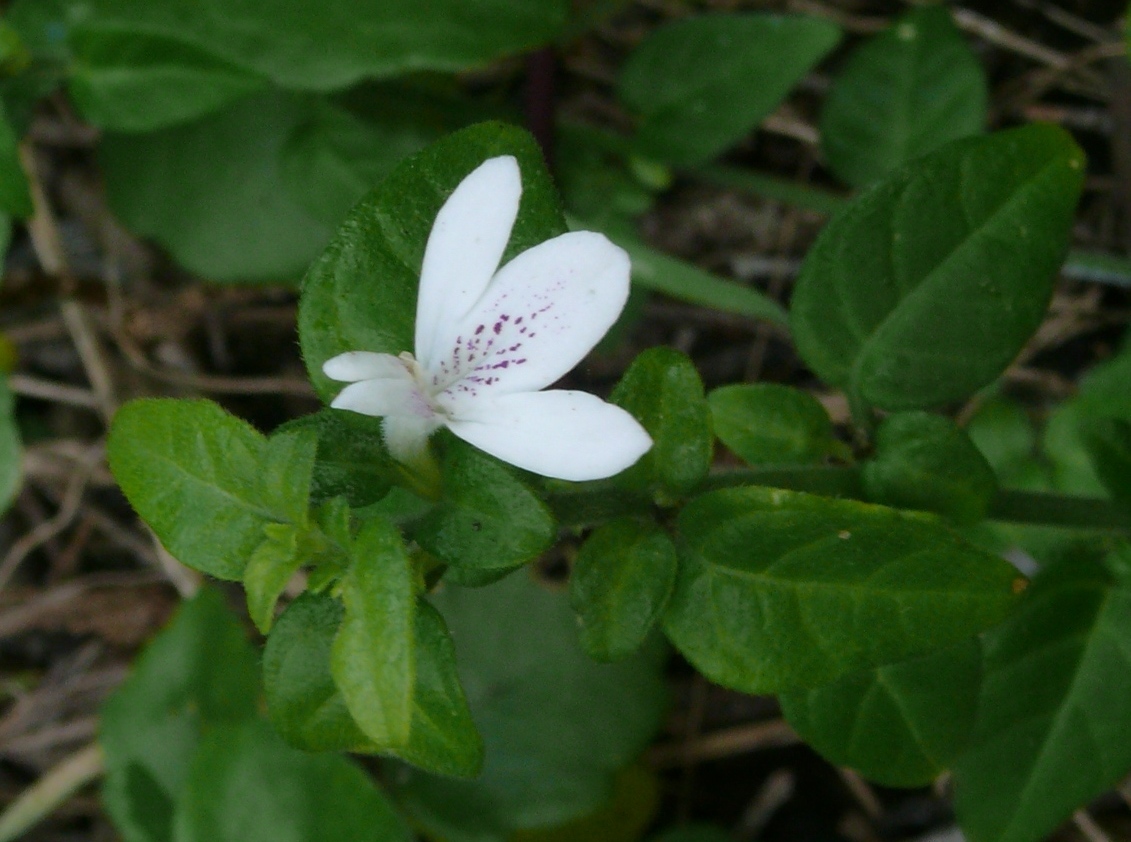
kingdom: Plantae
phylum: Tracheophyta
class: Magnoliopsida
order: Lamiales
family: Acanthaceae
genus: Justicia
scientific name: Justicia tubulosa
